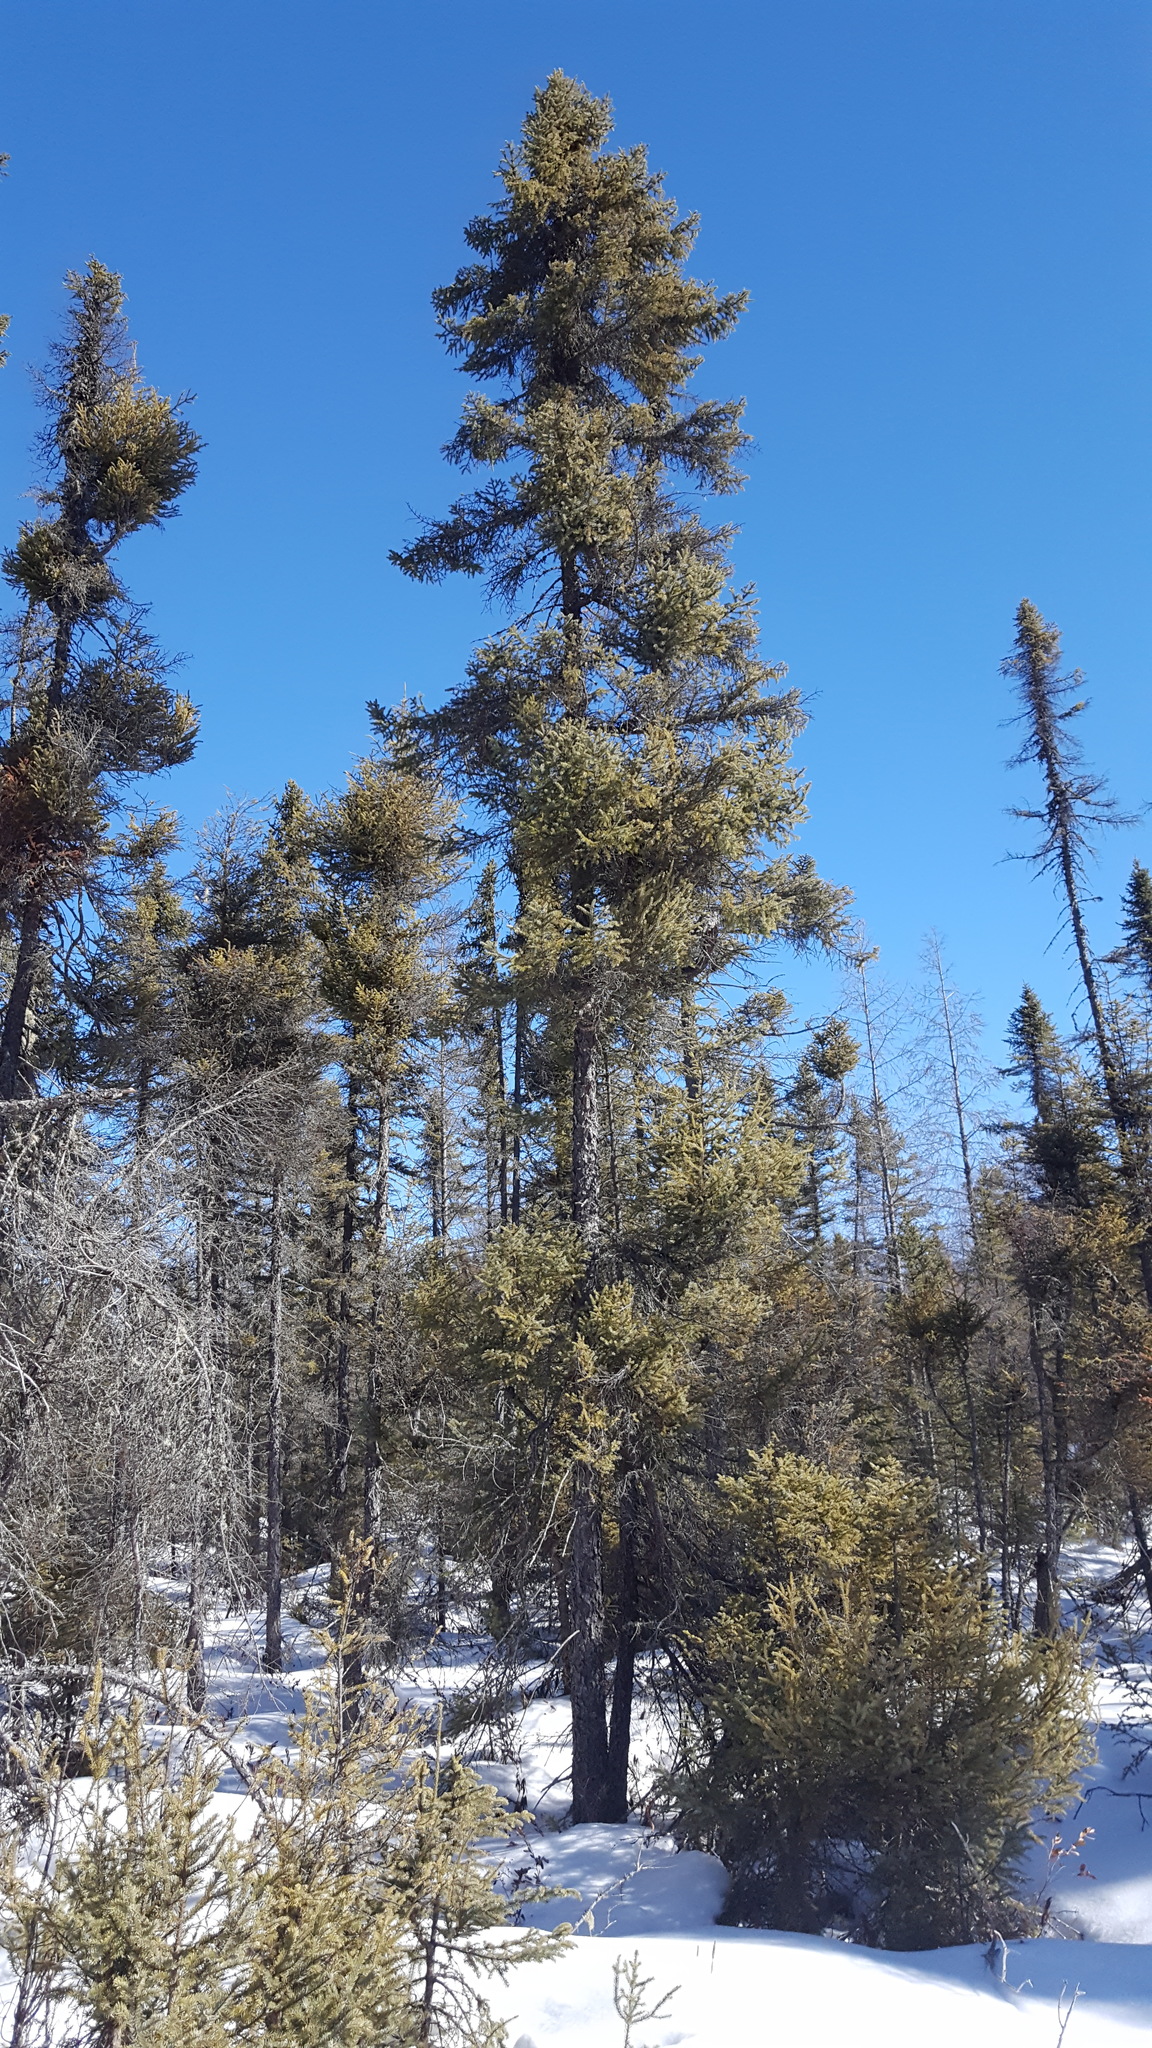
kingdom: Plantae
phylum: Tracheophyta
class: Pinopsida
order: Pinales
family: Pinaceae
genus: Picea
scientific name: Picea mariana
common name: Black spruce
